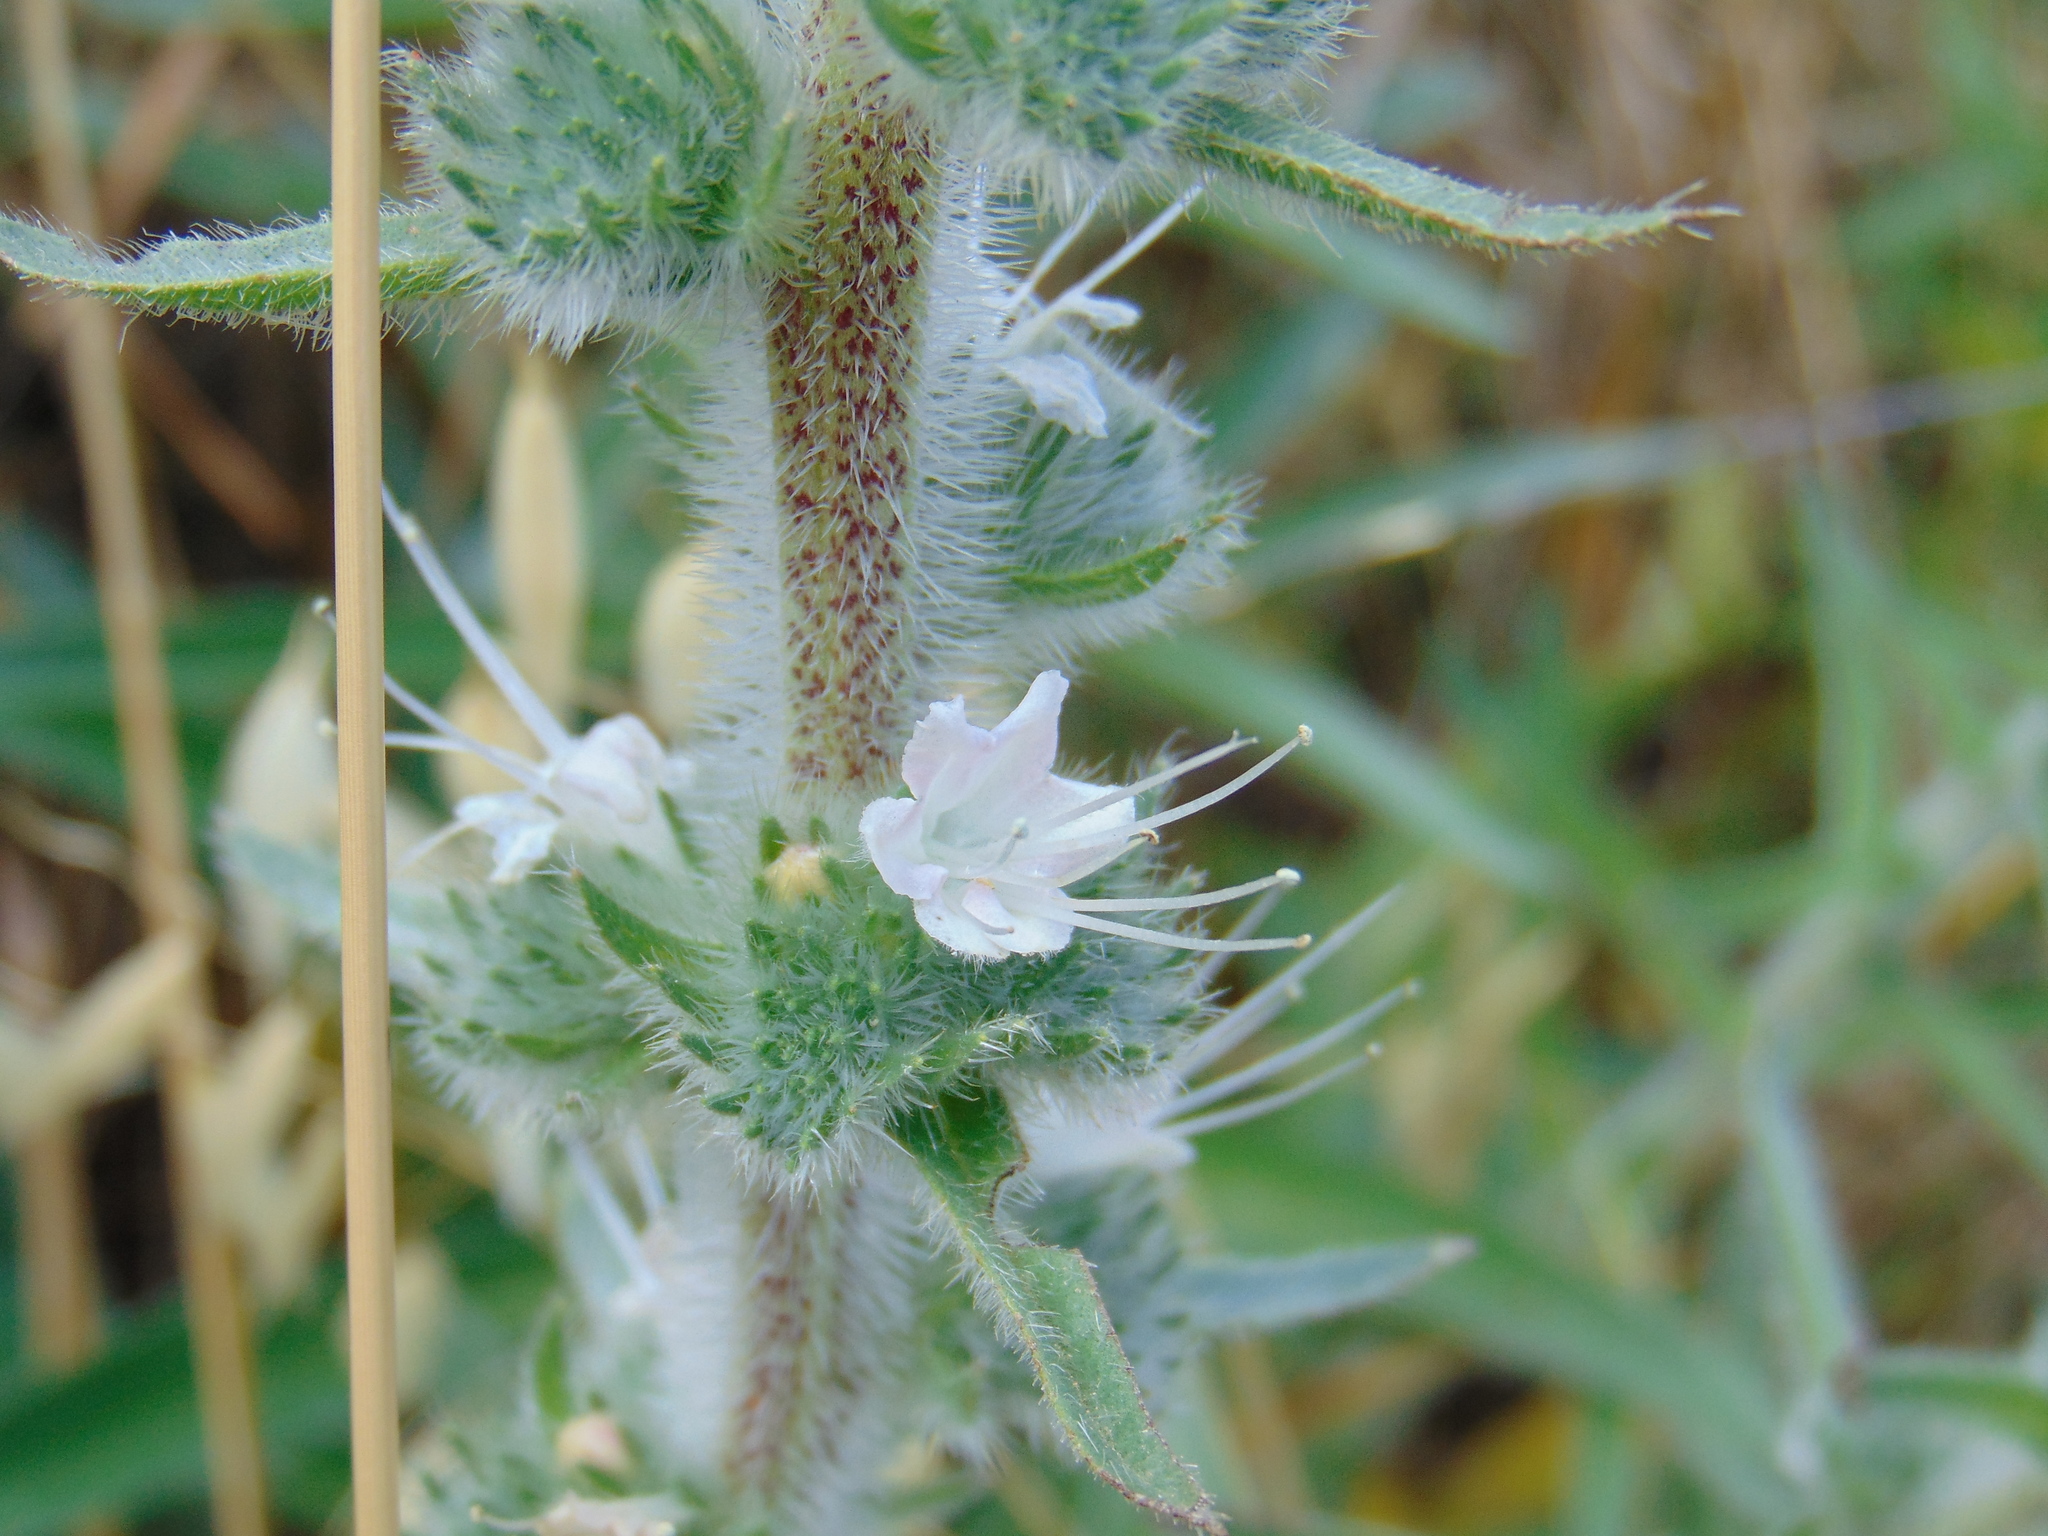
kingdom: Plantae
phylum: Tracheophyta
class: Magnoliopsida
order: Boraginales
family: Boraginaceae
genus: Echium
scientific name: Echium italicum
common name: Italian viper's bugloss
